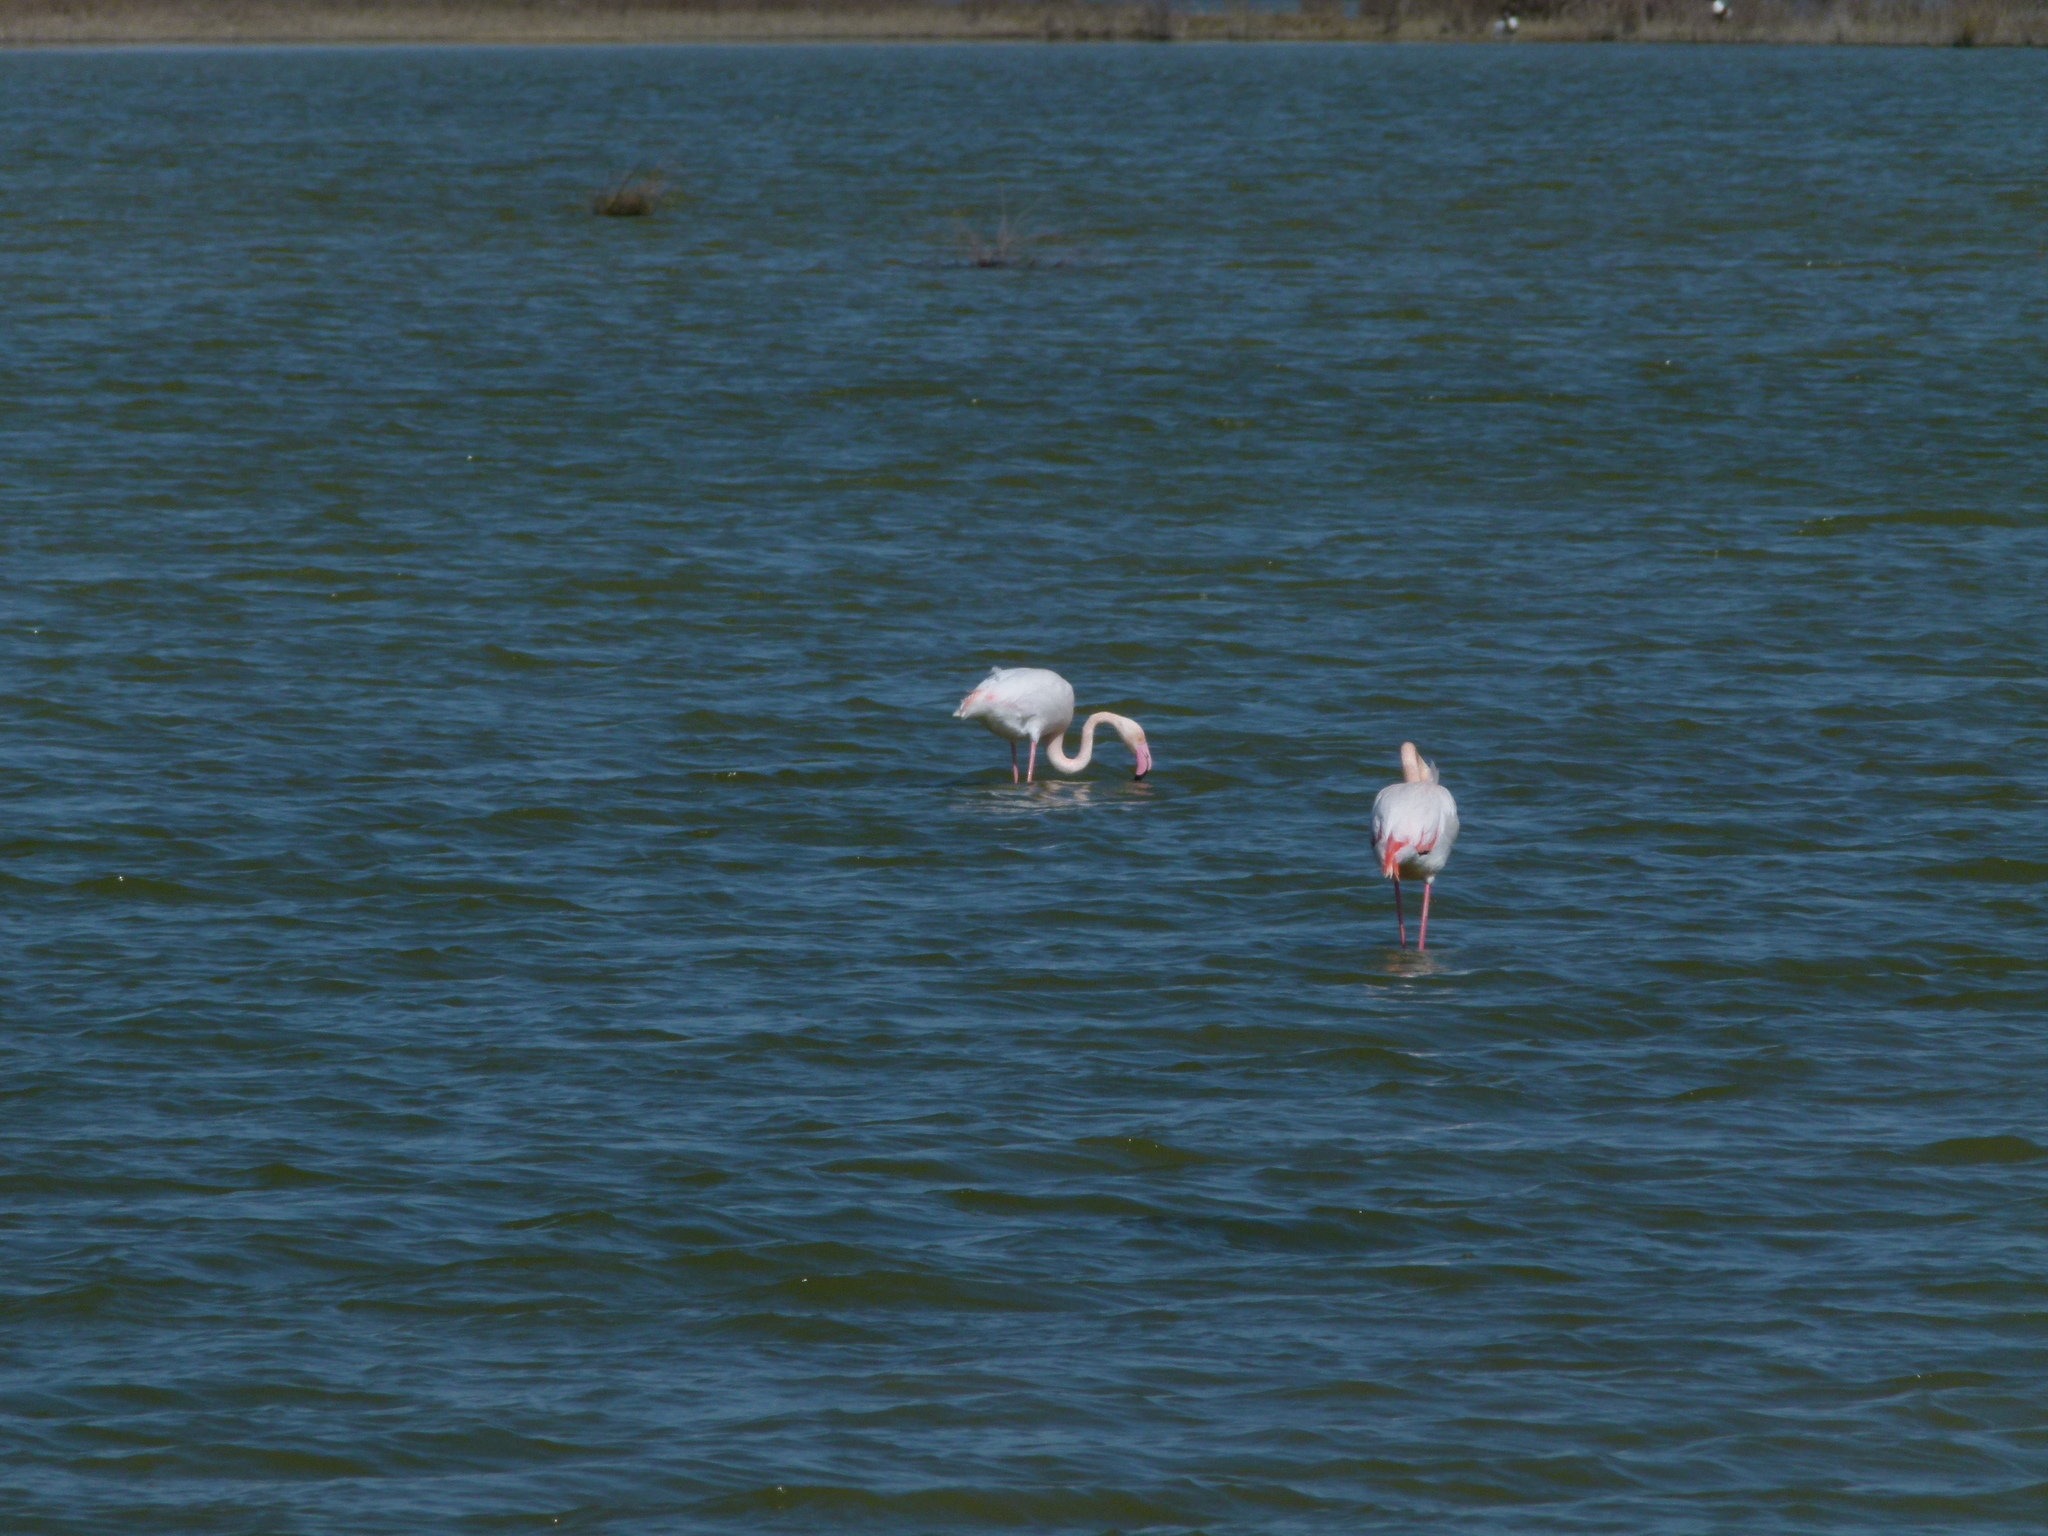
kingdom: Animalia
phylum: Chordata
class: Aves
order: Phoenicopteriformes
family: Phoenicopteridae
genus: Phoenicopterus
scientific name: Phoenicopterus roseus
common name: Greater flamingo
